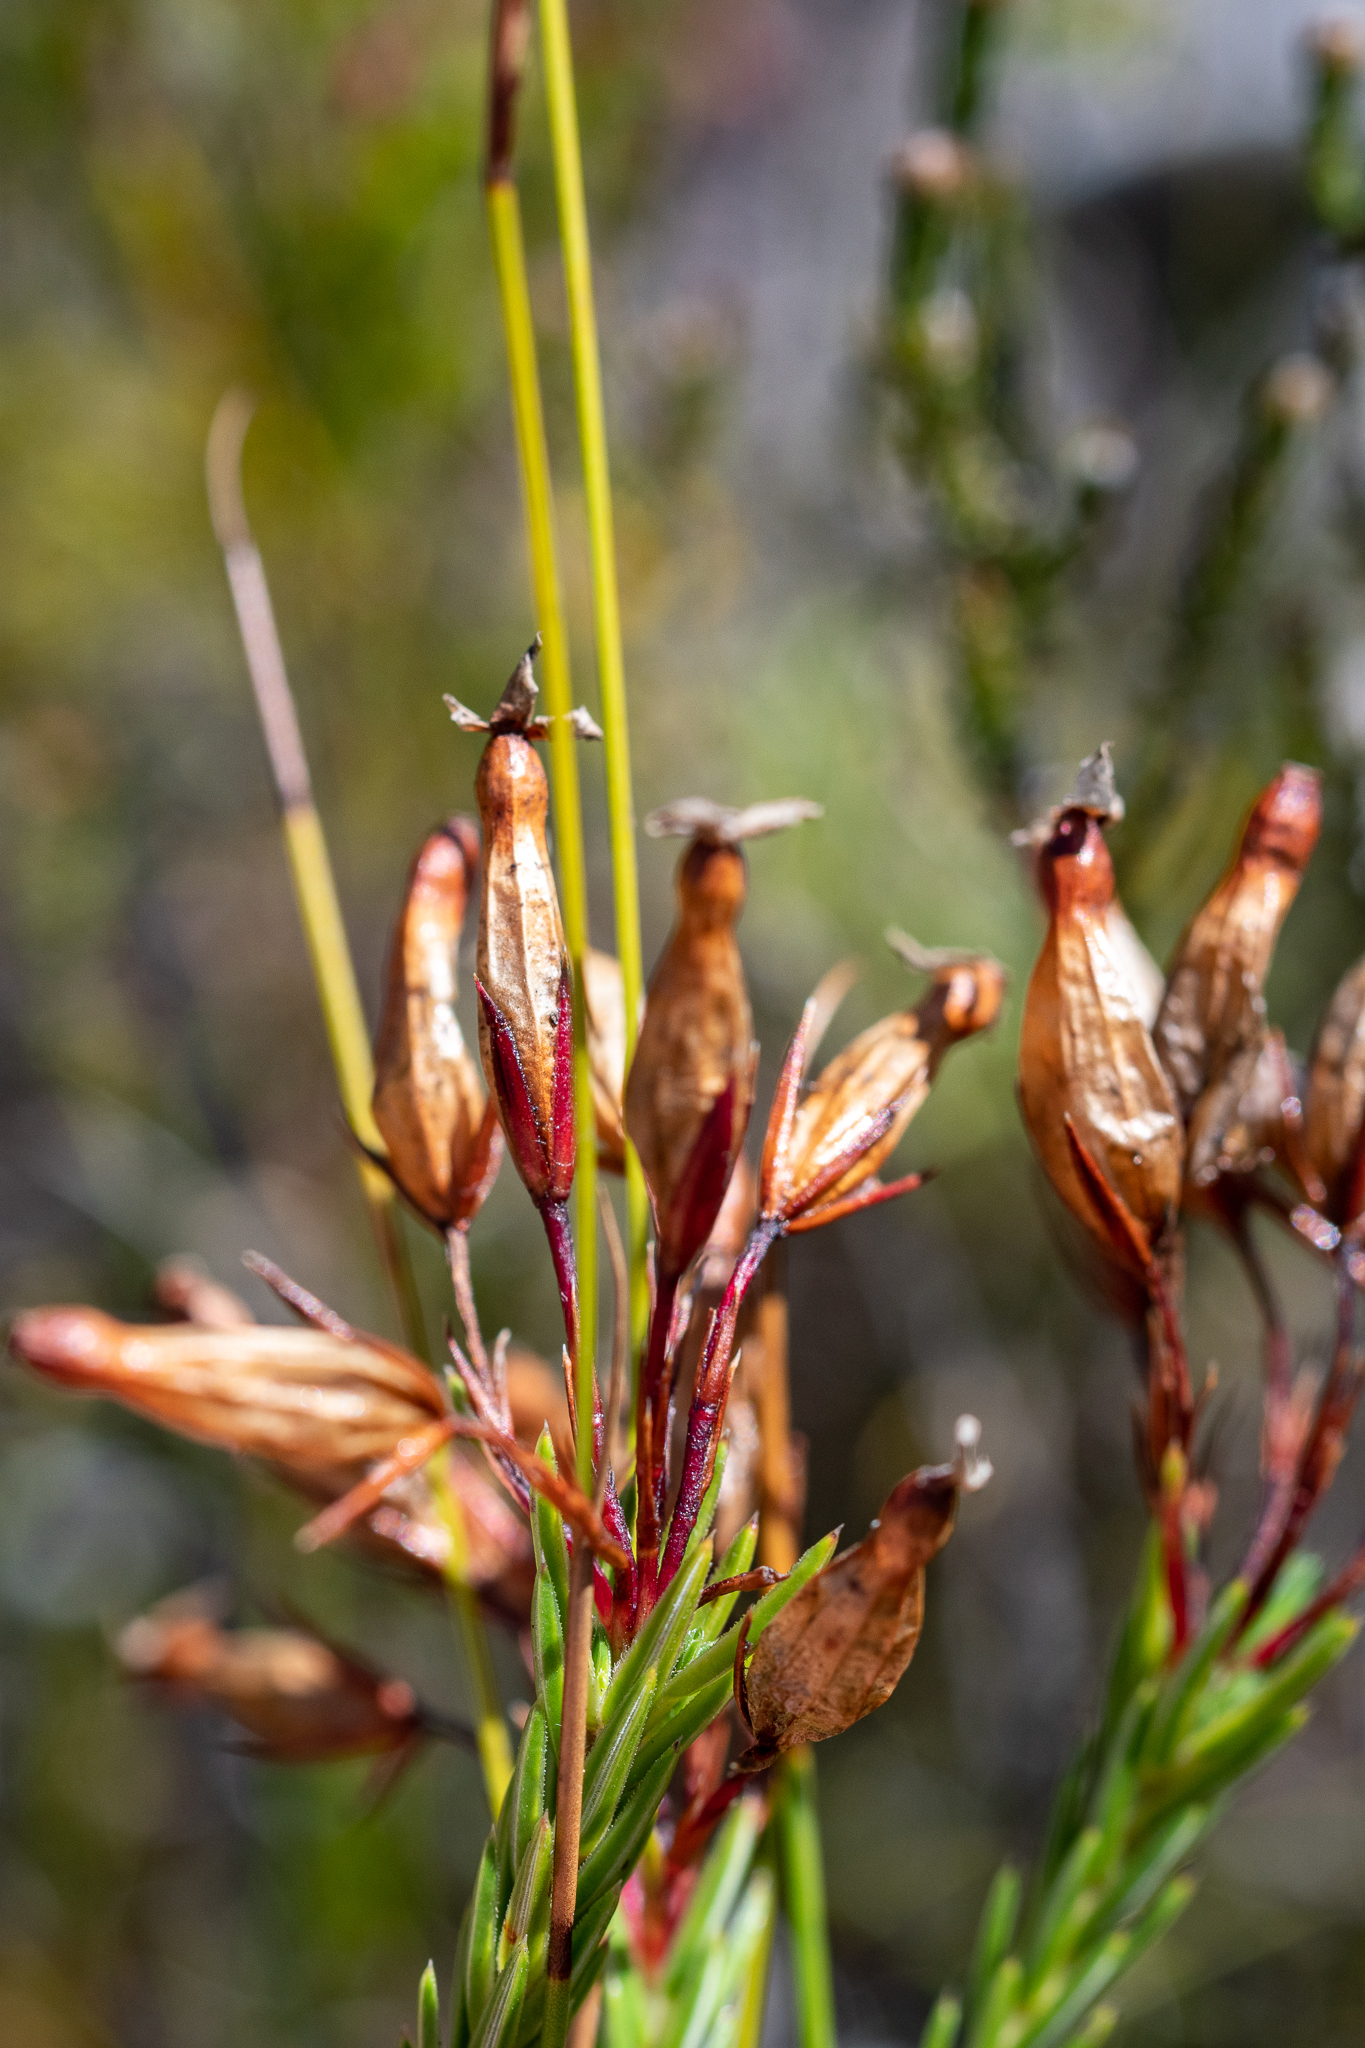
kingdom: Plantae
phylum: Tracheophyta
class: Magnoliopsida
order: Ericales
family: Ericaceae
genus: Erica
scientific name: Erica irbyana
